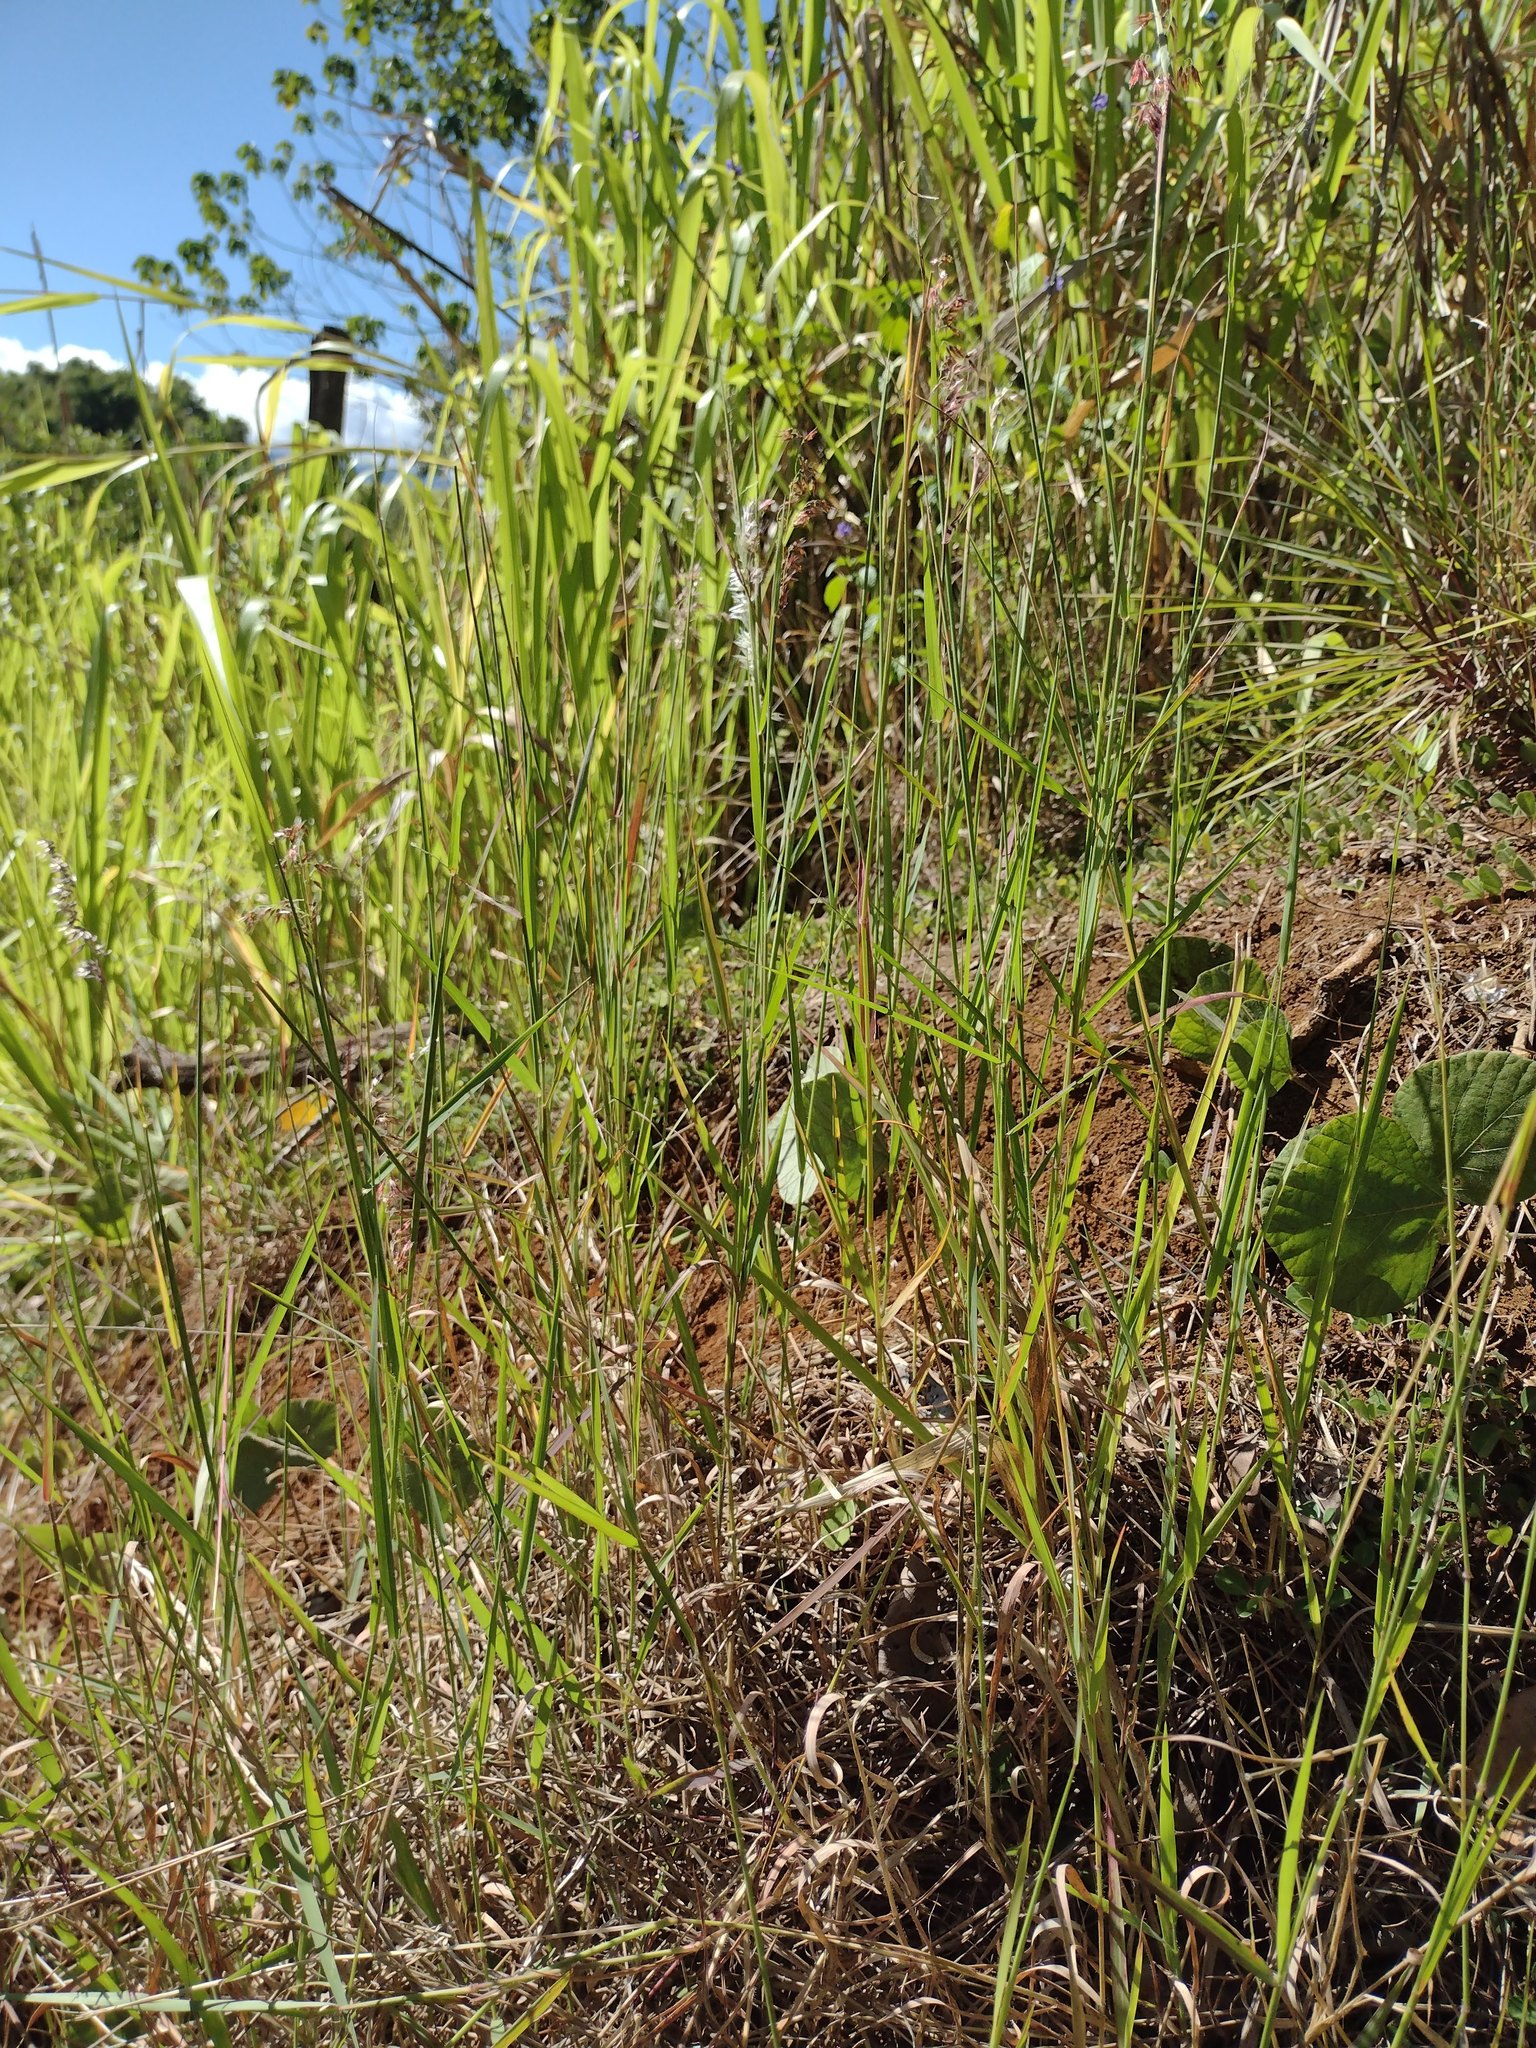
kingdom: Plantae
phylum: Tracheophyta
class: Liliopsida
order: Poales
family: Poaceae
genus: Melinis
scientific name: Melinis repens
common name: Rose natal grass
